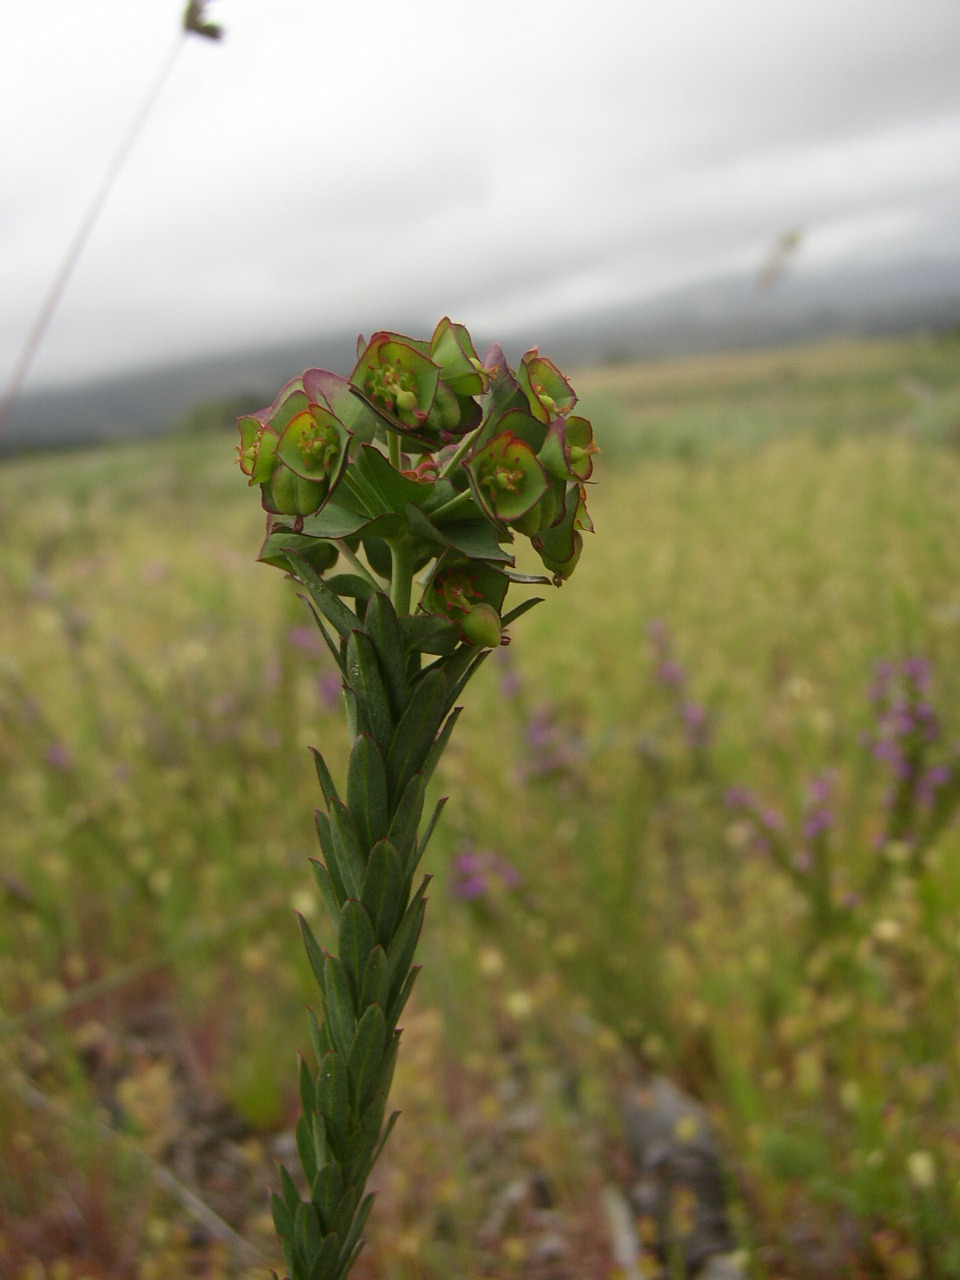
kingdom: Plantae
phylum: Tracheophyta
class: Magnoliopsida
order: Malpighiales
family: Euphorbiaceae
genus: Euphorbia
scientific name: Euphorbia genistoides
